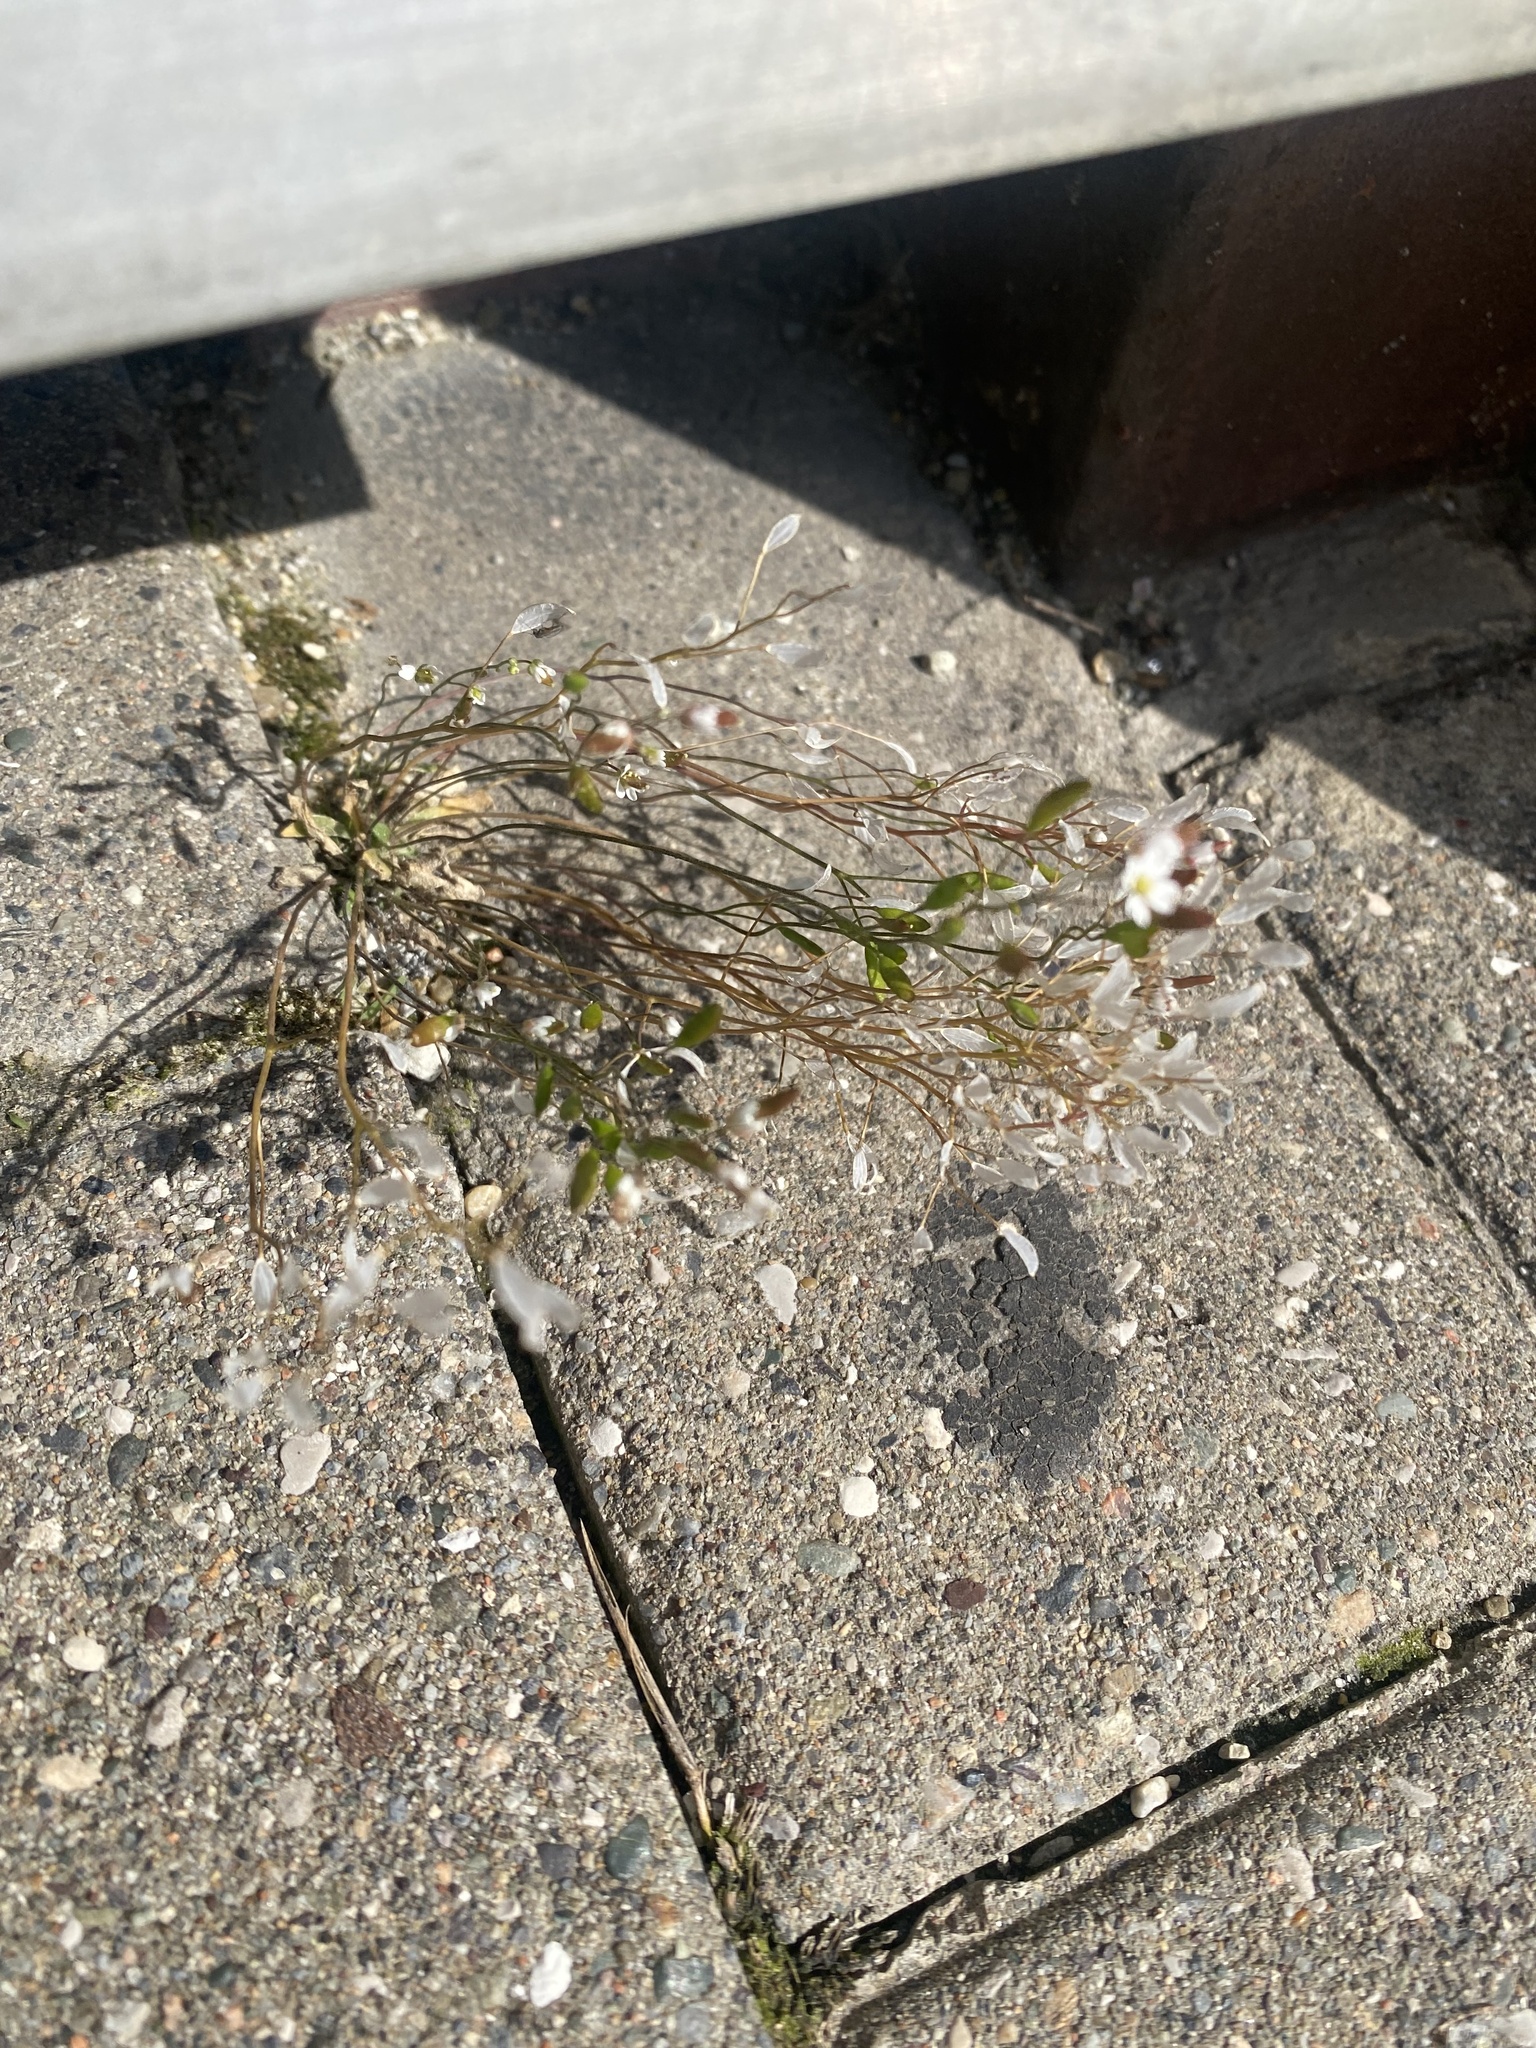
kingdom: Plantae
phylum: Tracheophyta
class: Magnoliopsida
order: Brassicales
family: Brassicaceae
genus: Draba
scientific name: Draba verna
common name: Spring draba
